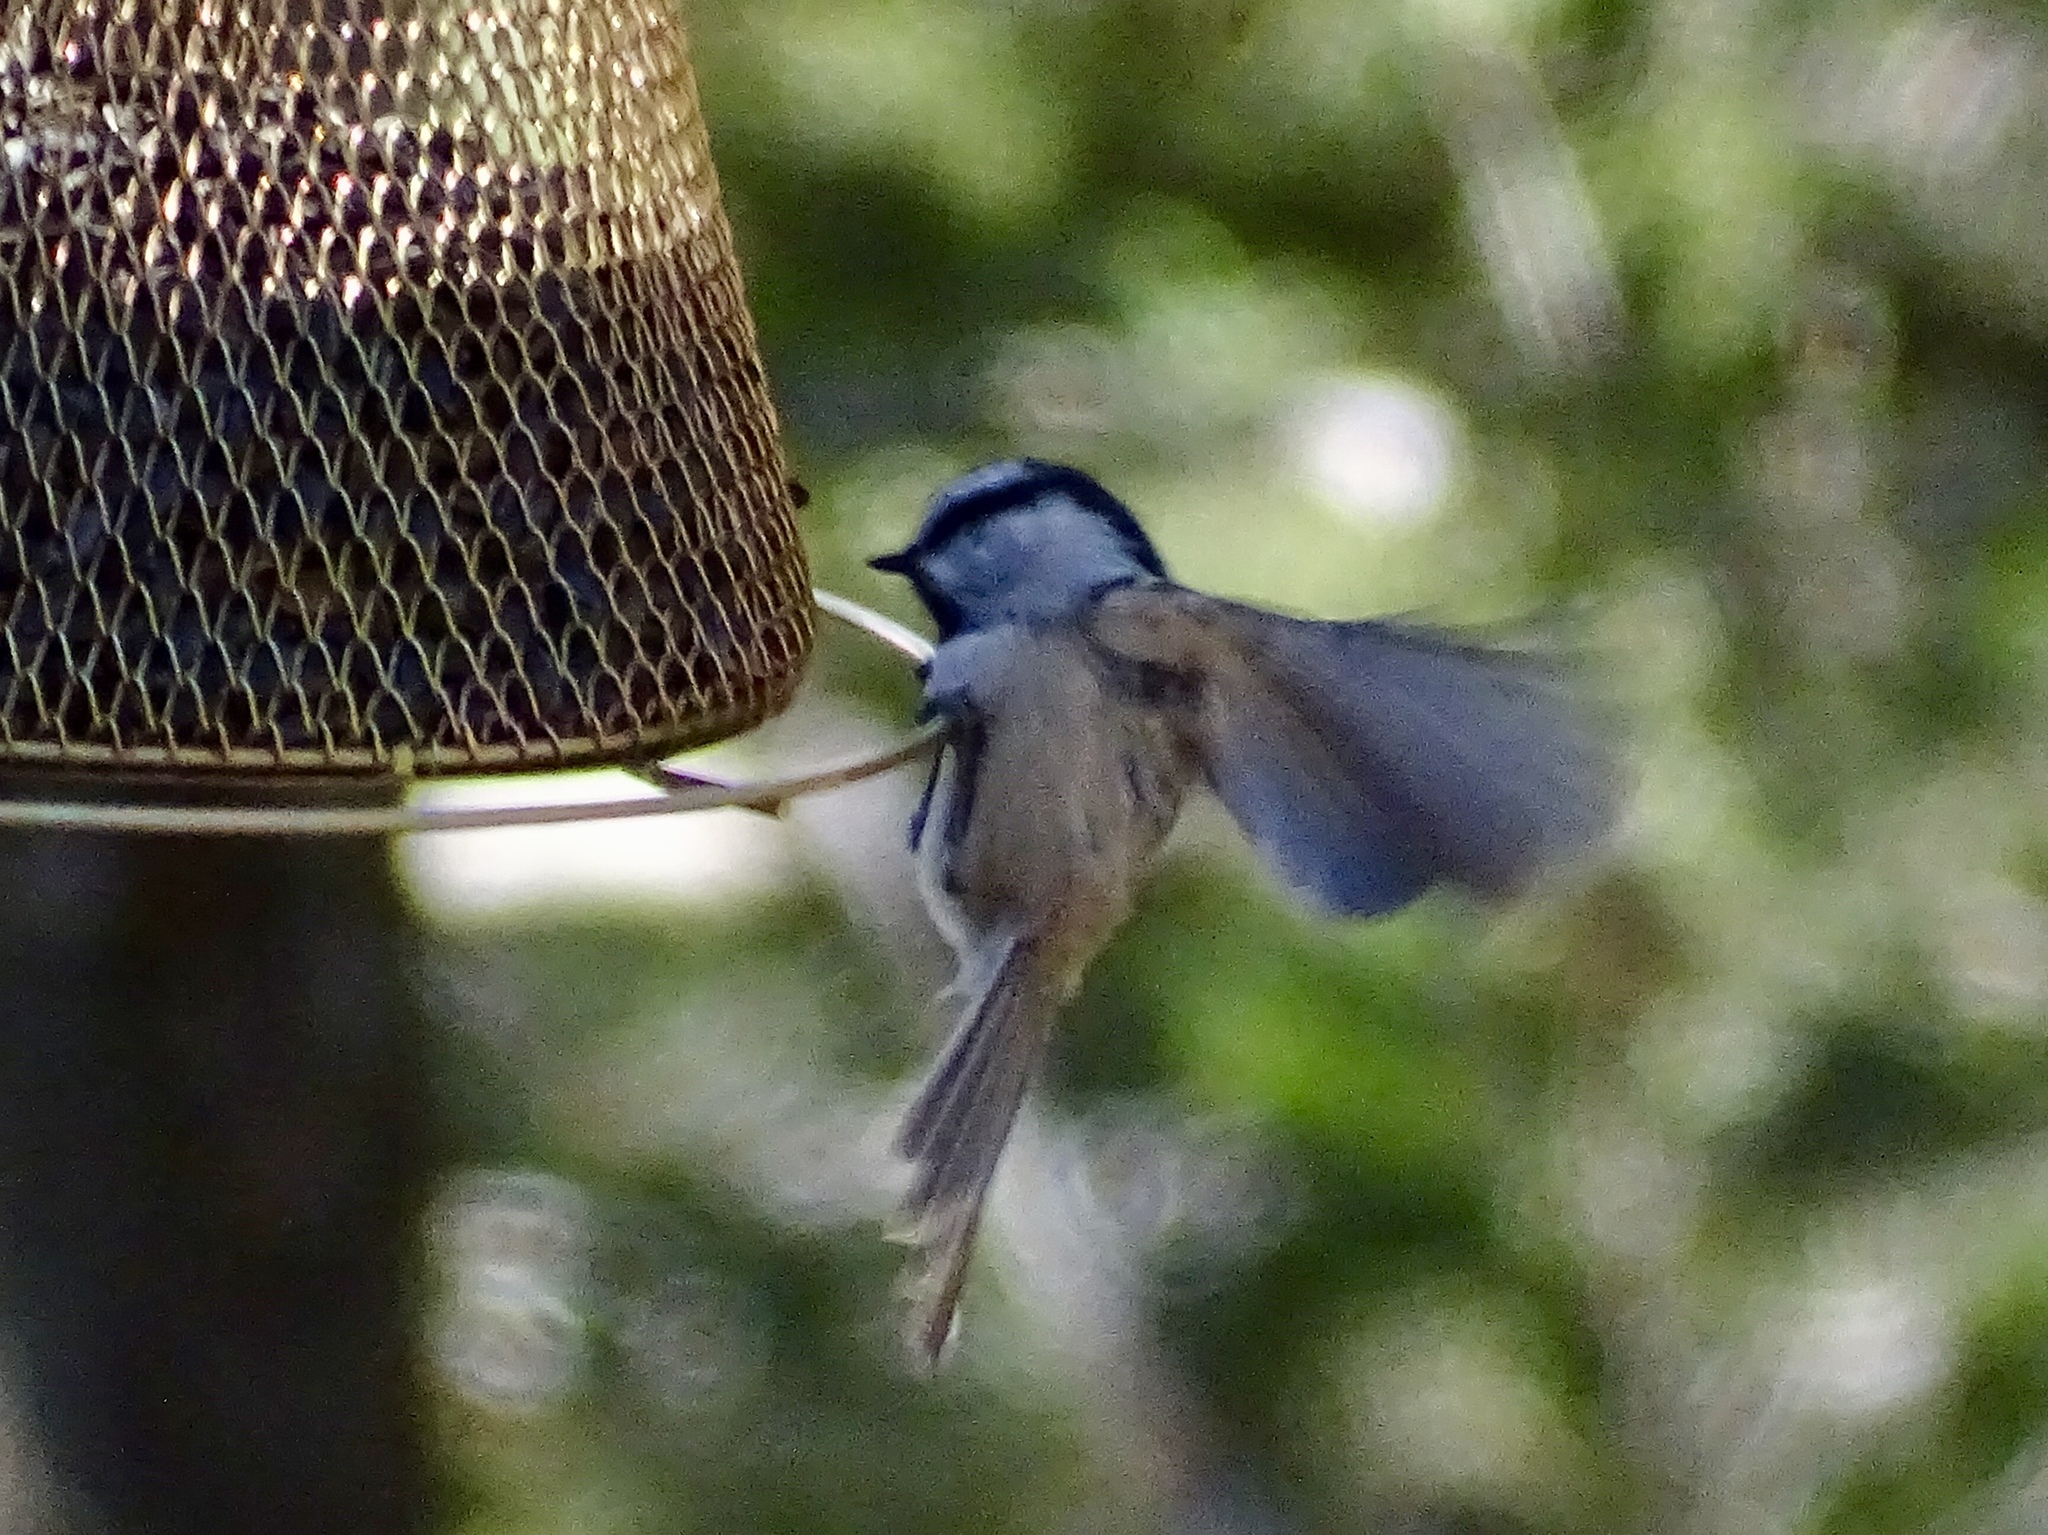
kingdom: Animalia
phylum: Chordata
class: Aves
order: Passeriformes
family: Paridae
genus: Poecile
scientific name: Poecile gambeli
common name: Mountain chickadee
